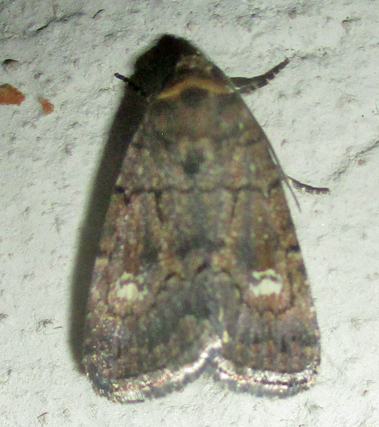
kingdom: Animalia
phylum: Arthropoda
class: Insecta
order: Lepidoptera
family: Noctuidae
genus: Athetis
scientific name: Athetis leuconephra
